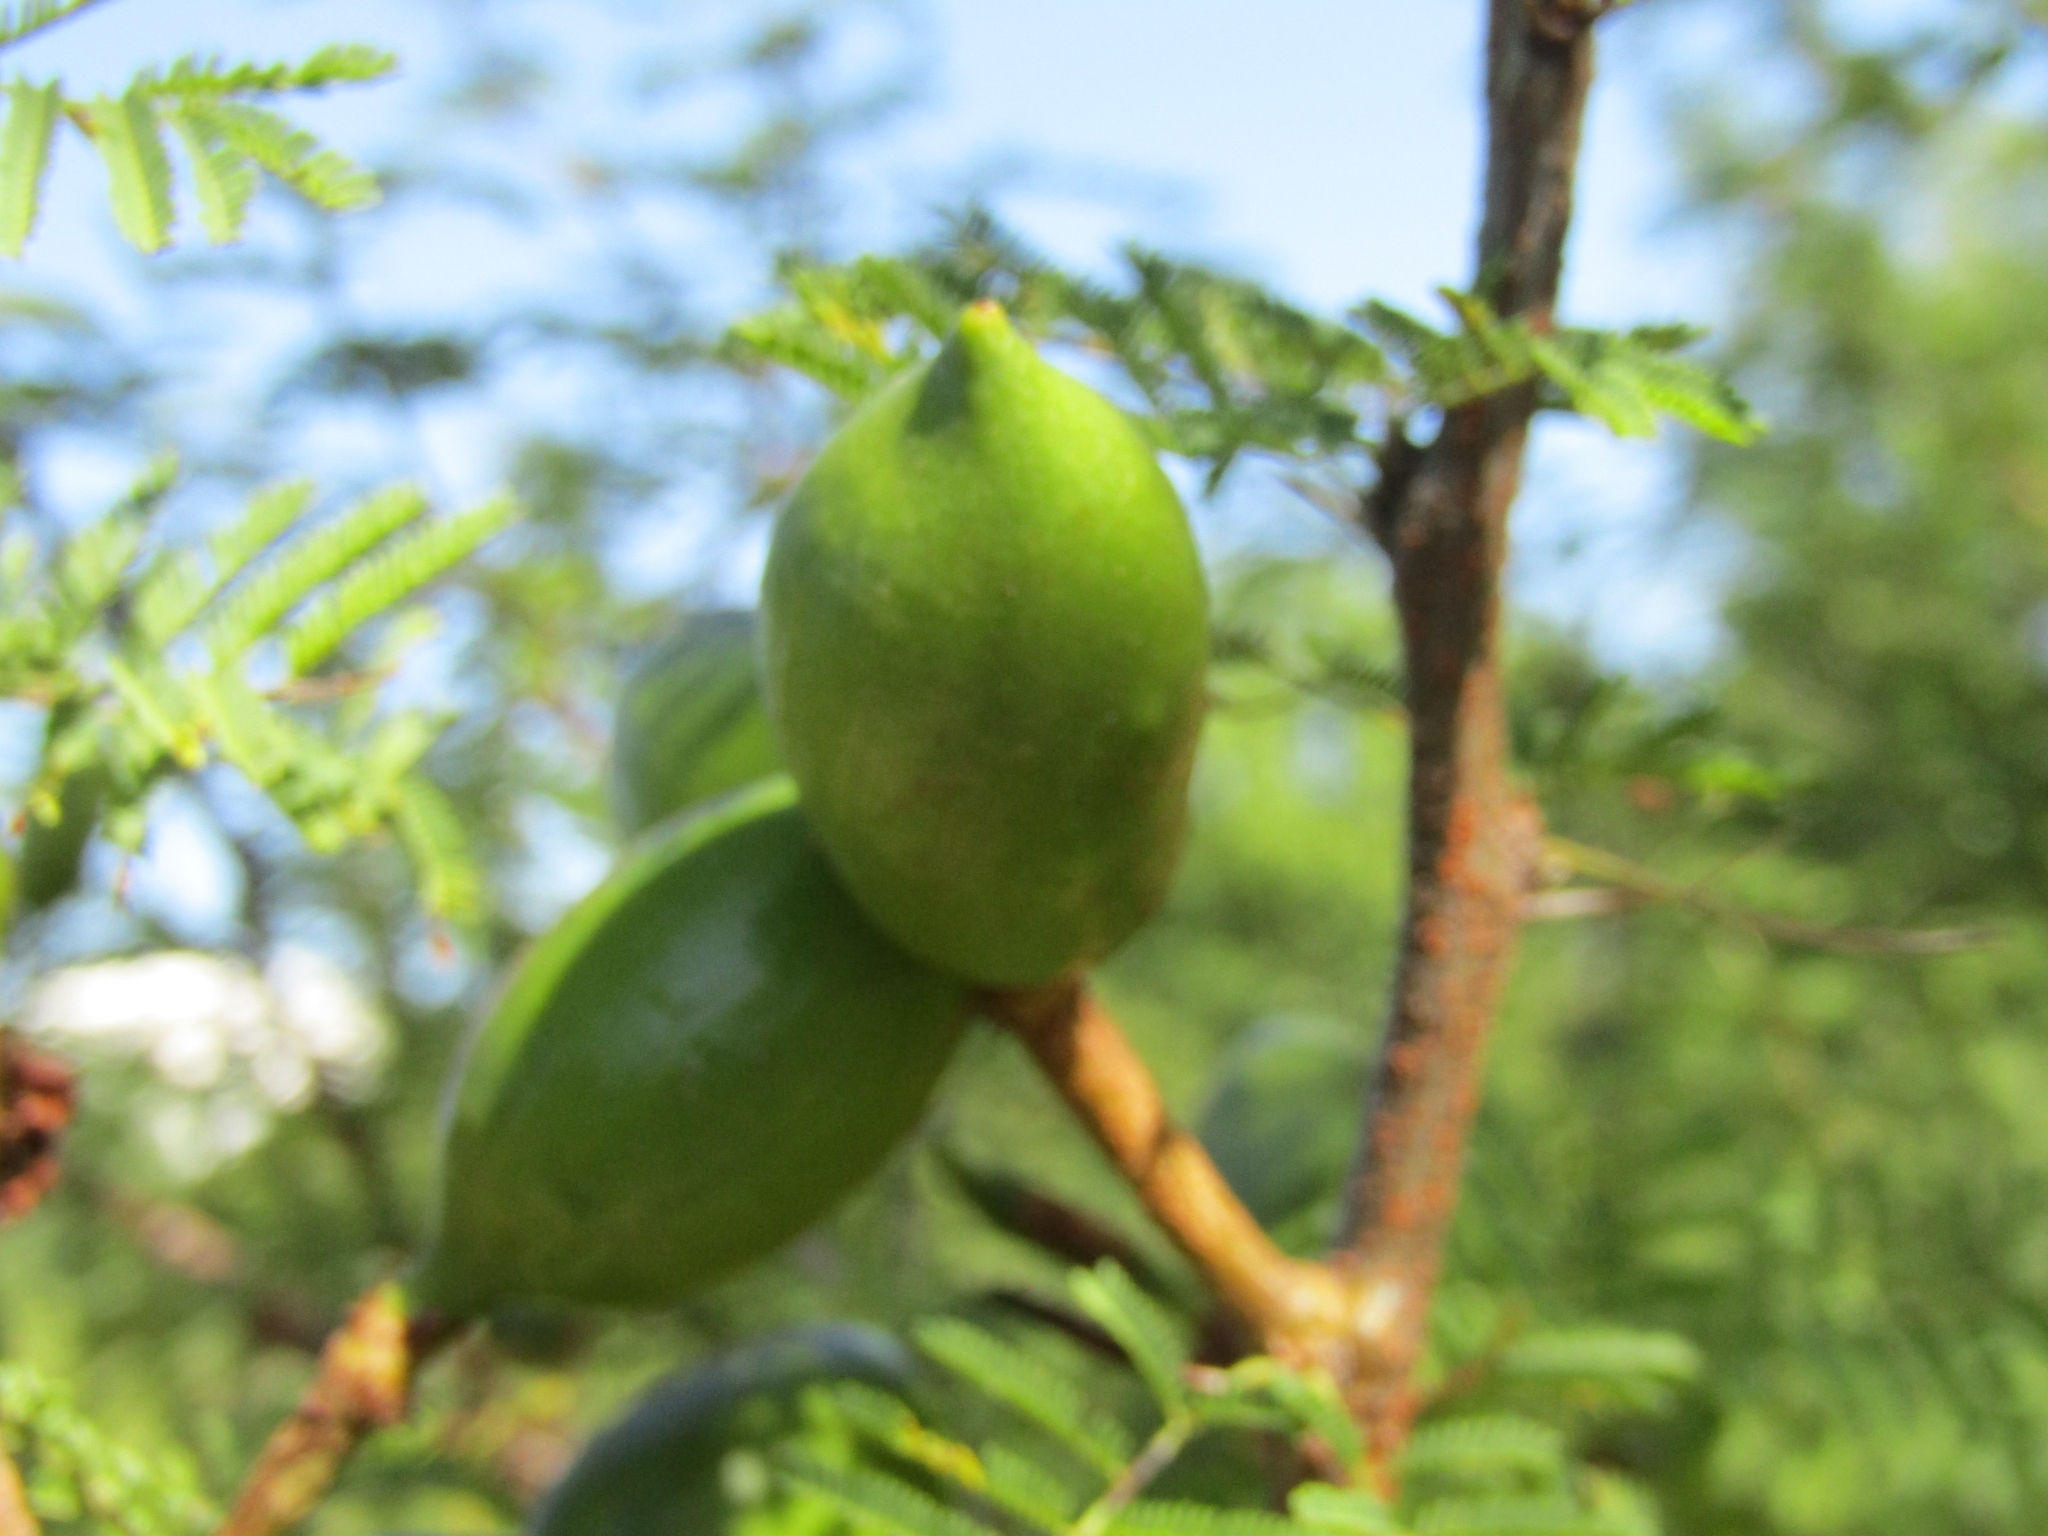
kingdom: Plantae
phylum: Tracheophyta
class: Magnoliopsida
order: Fabales
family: Fabaceae
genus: Vachellia
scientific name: Vachellia caven
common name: Roman cassie
